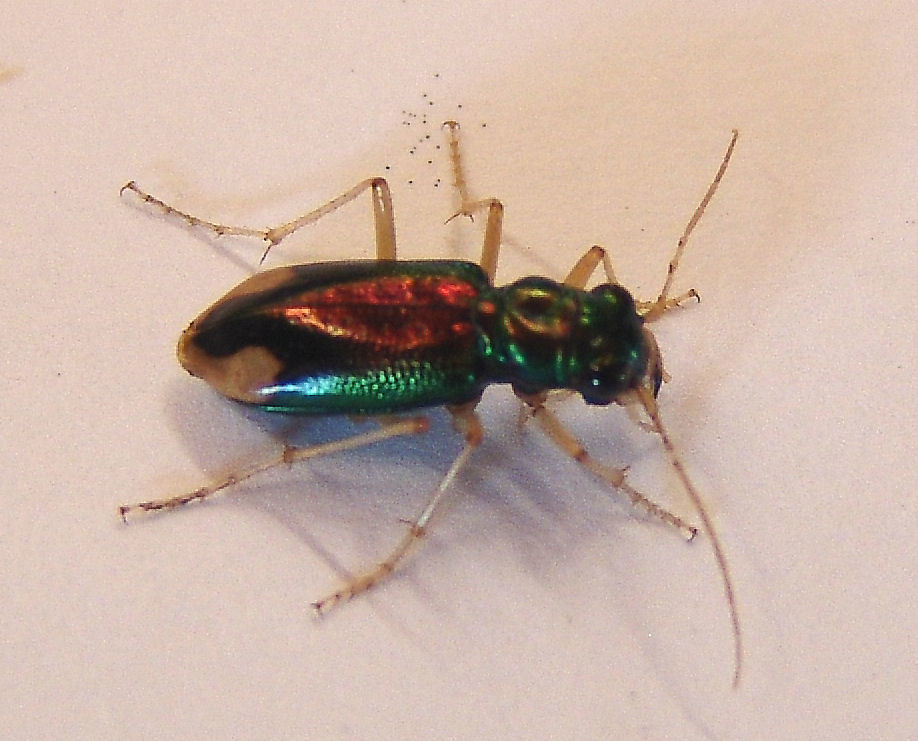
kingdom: Animalia
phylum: Arthropoda
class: Insecta
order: Coleoptera
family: Carabidae
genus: Tetracha
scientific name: Tetracha carolina
